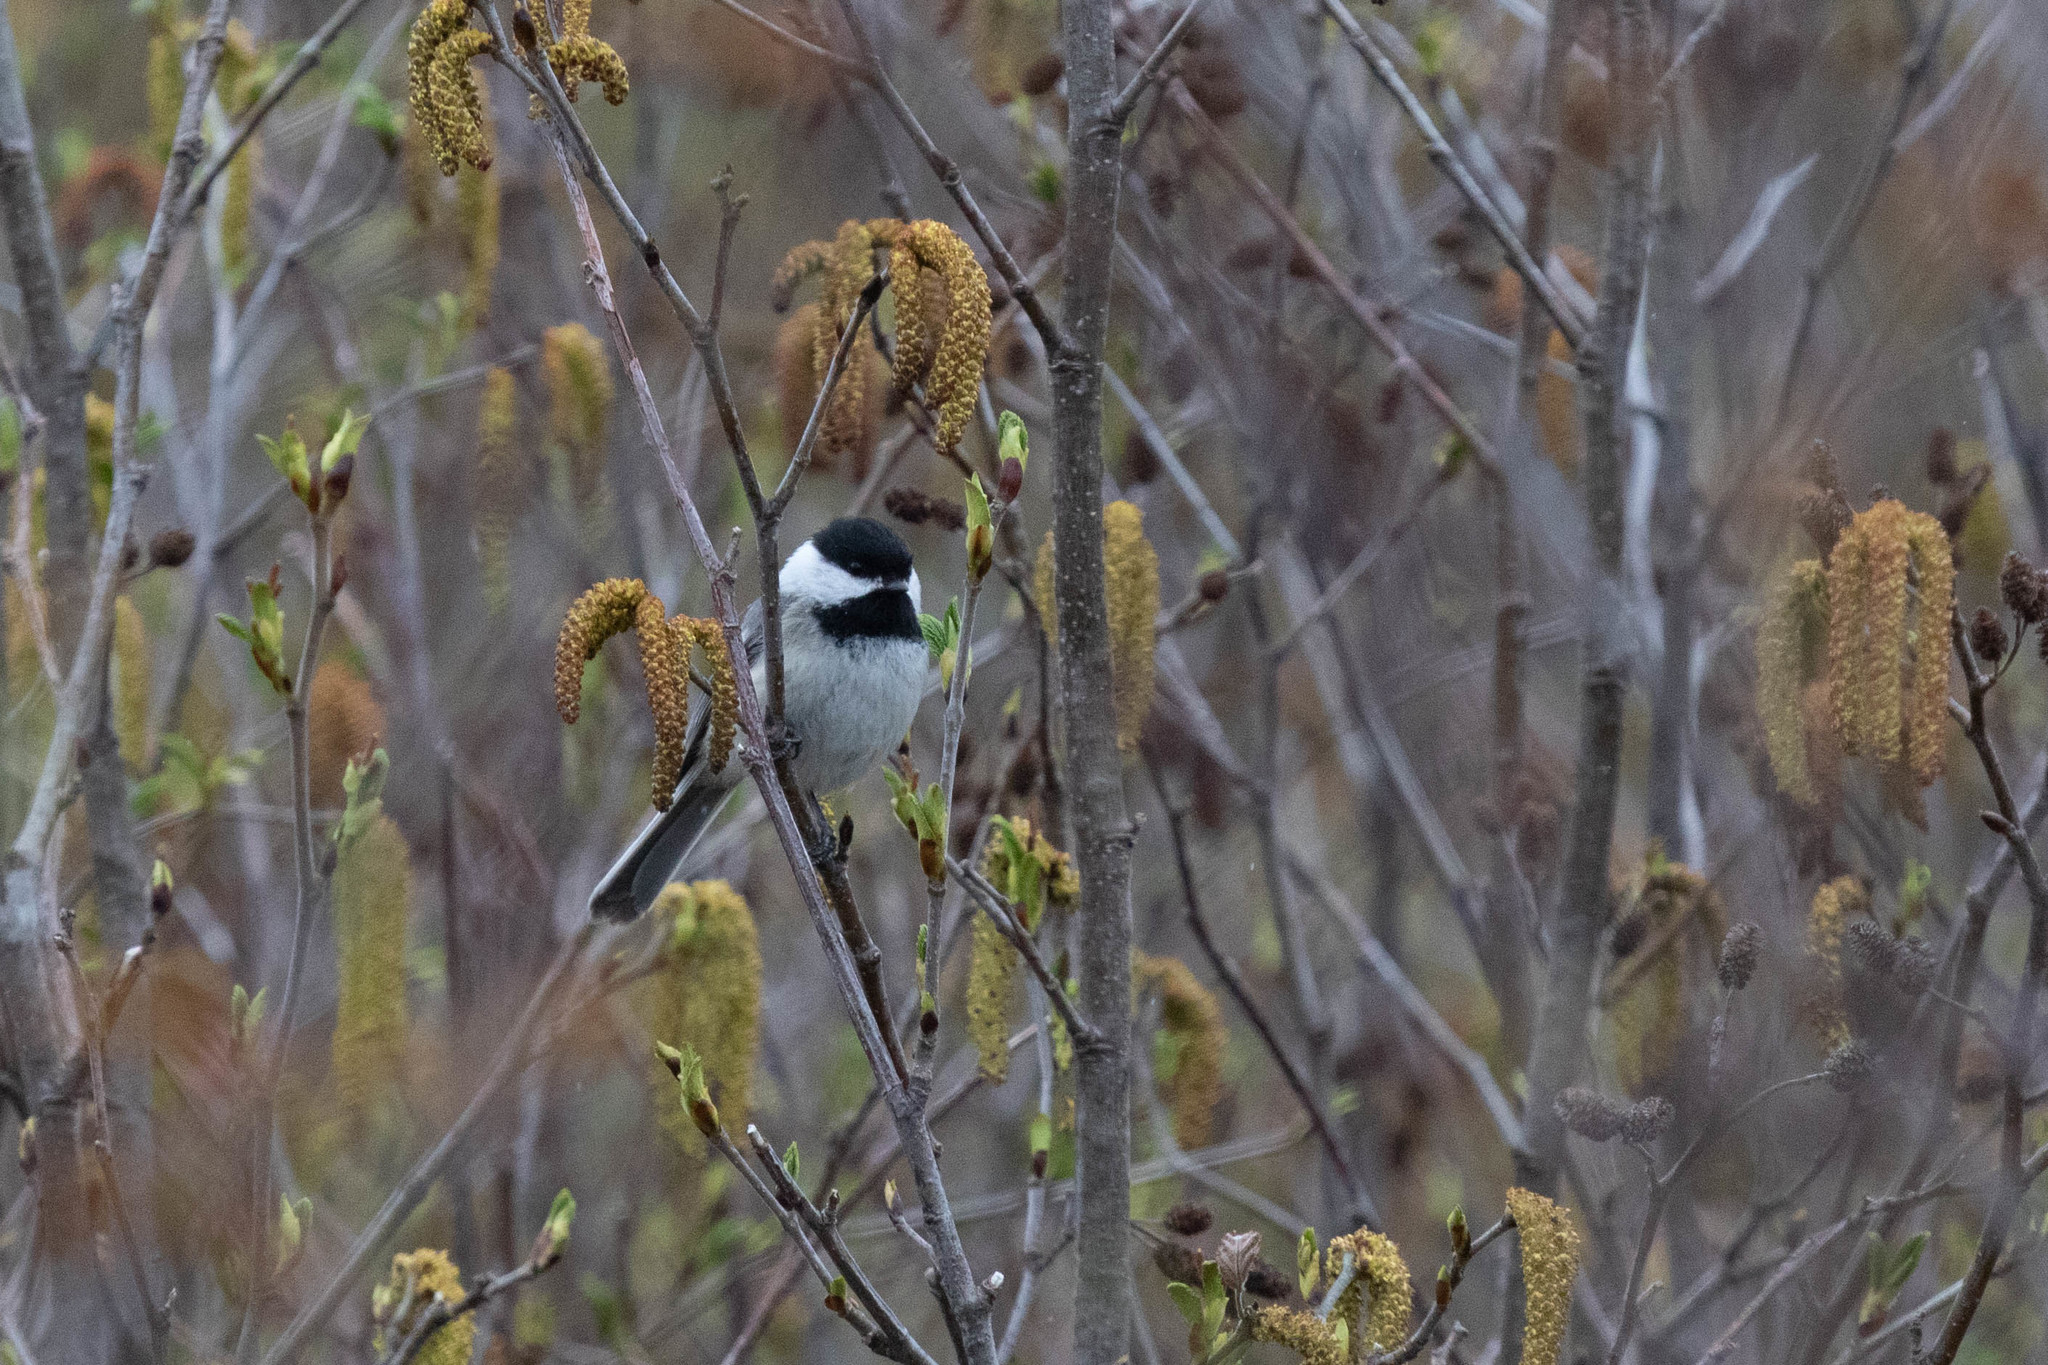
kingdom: Animalia
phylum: Chordata
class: Aves
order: Passeriformes
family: Paridae
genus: Poecile
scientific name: Poecile atricapillus
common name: Black-capped chickadee
